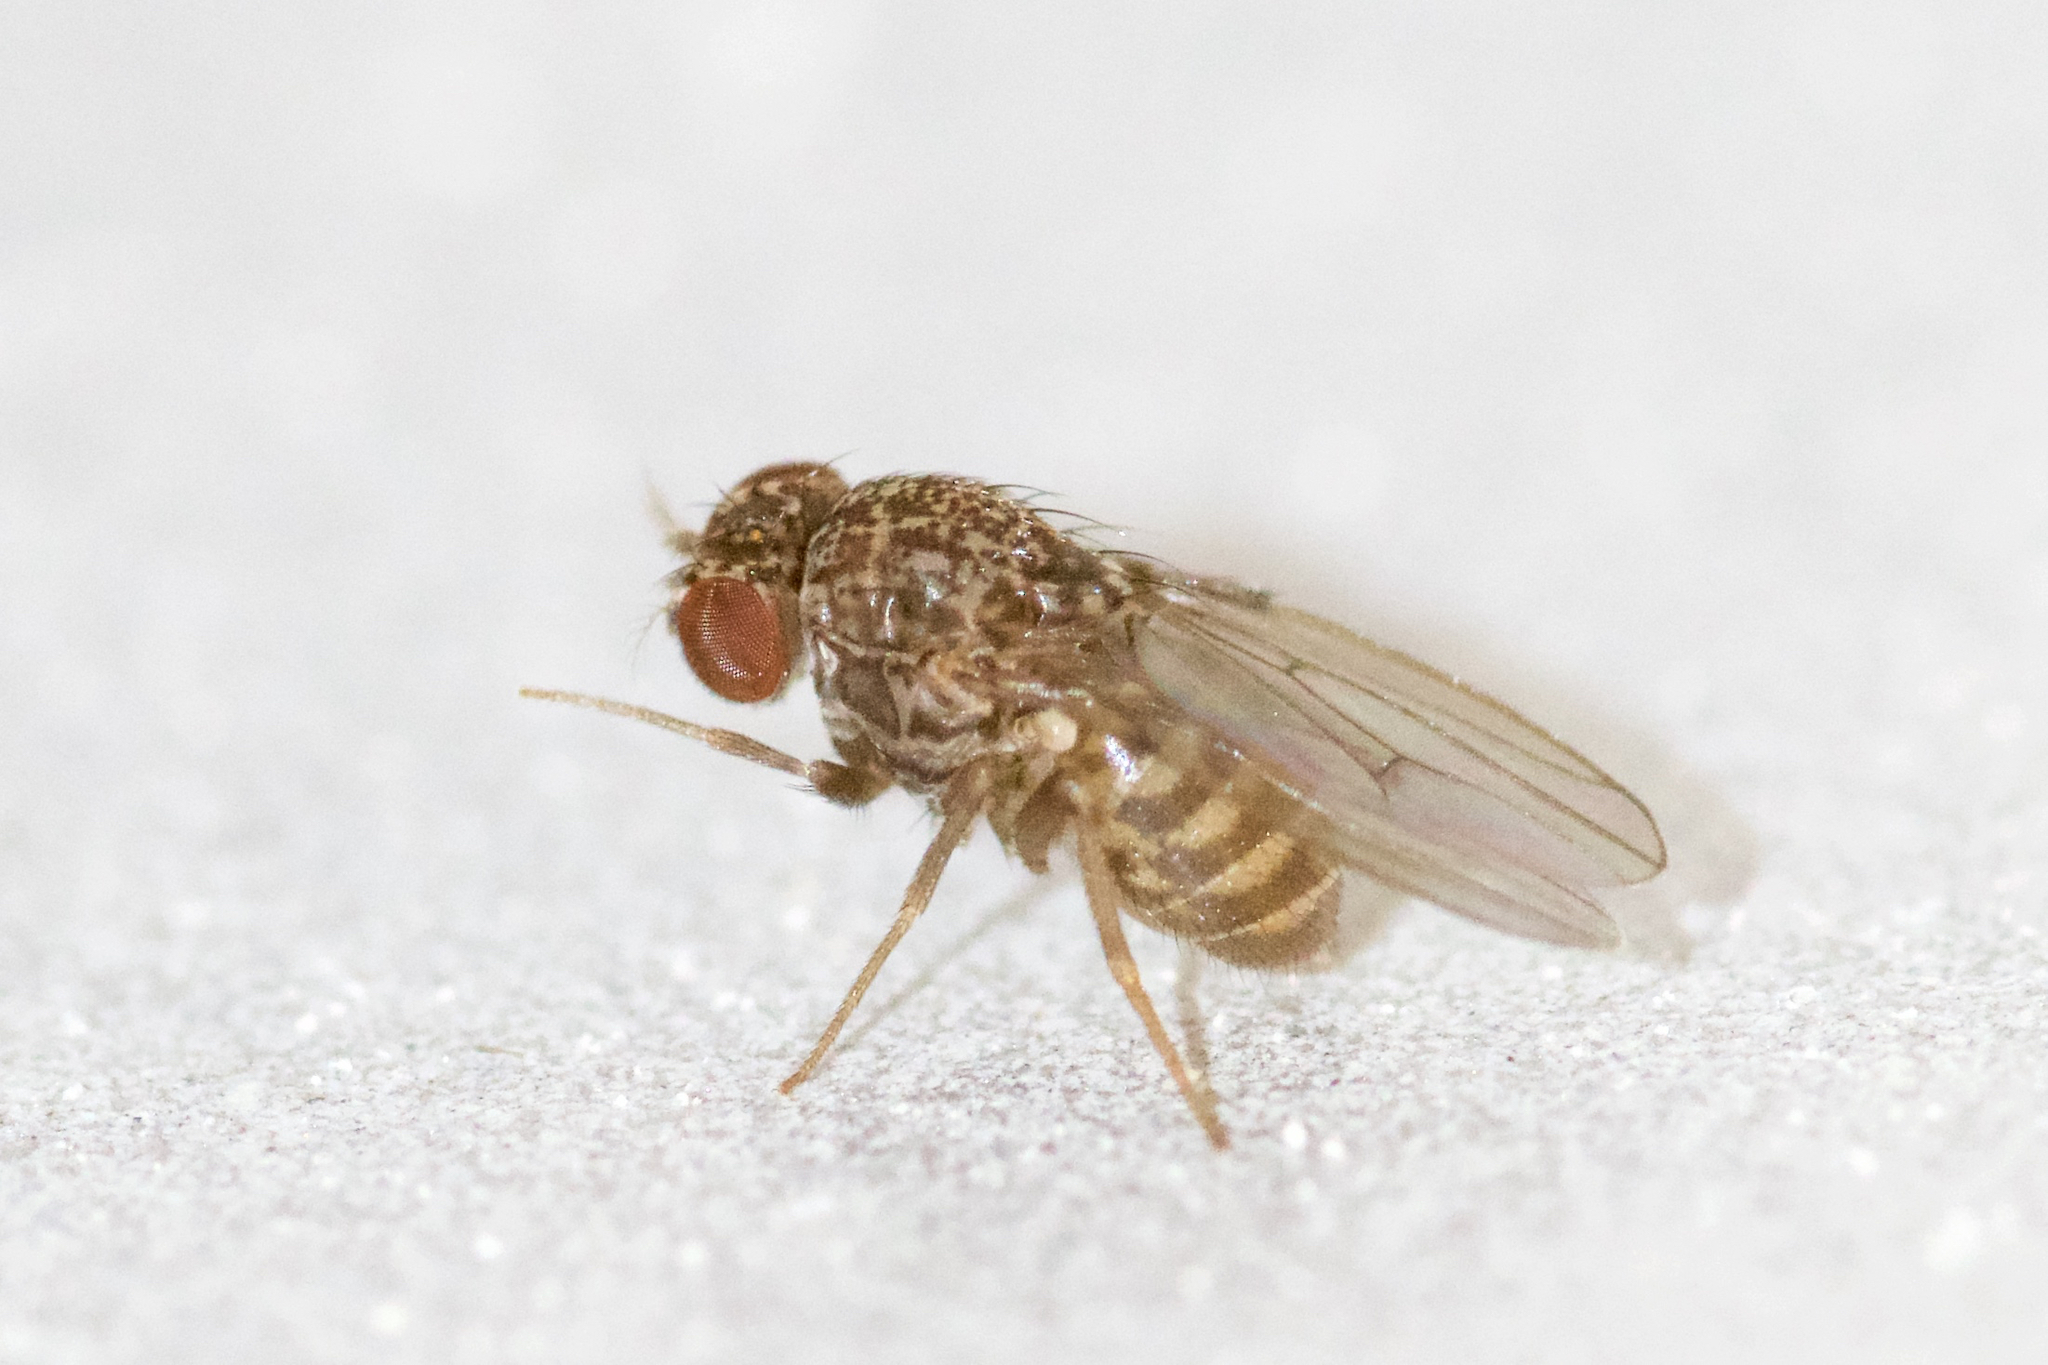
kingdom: Animalia
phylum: Arthropoda
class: Insecta
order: Diptera
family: Drosophilidae
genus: Drosophila
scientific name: Drosophila repleta
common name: Pomace fly
